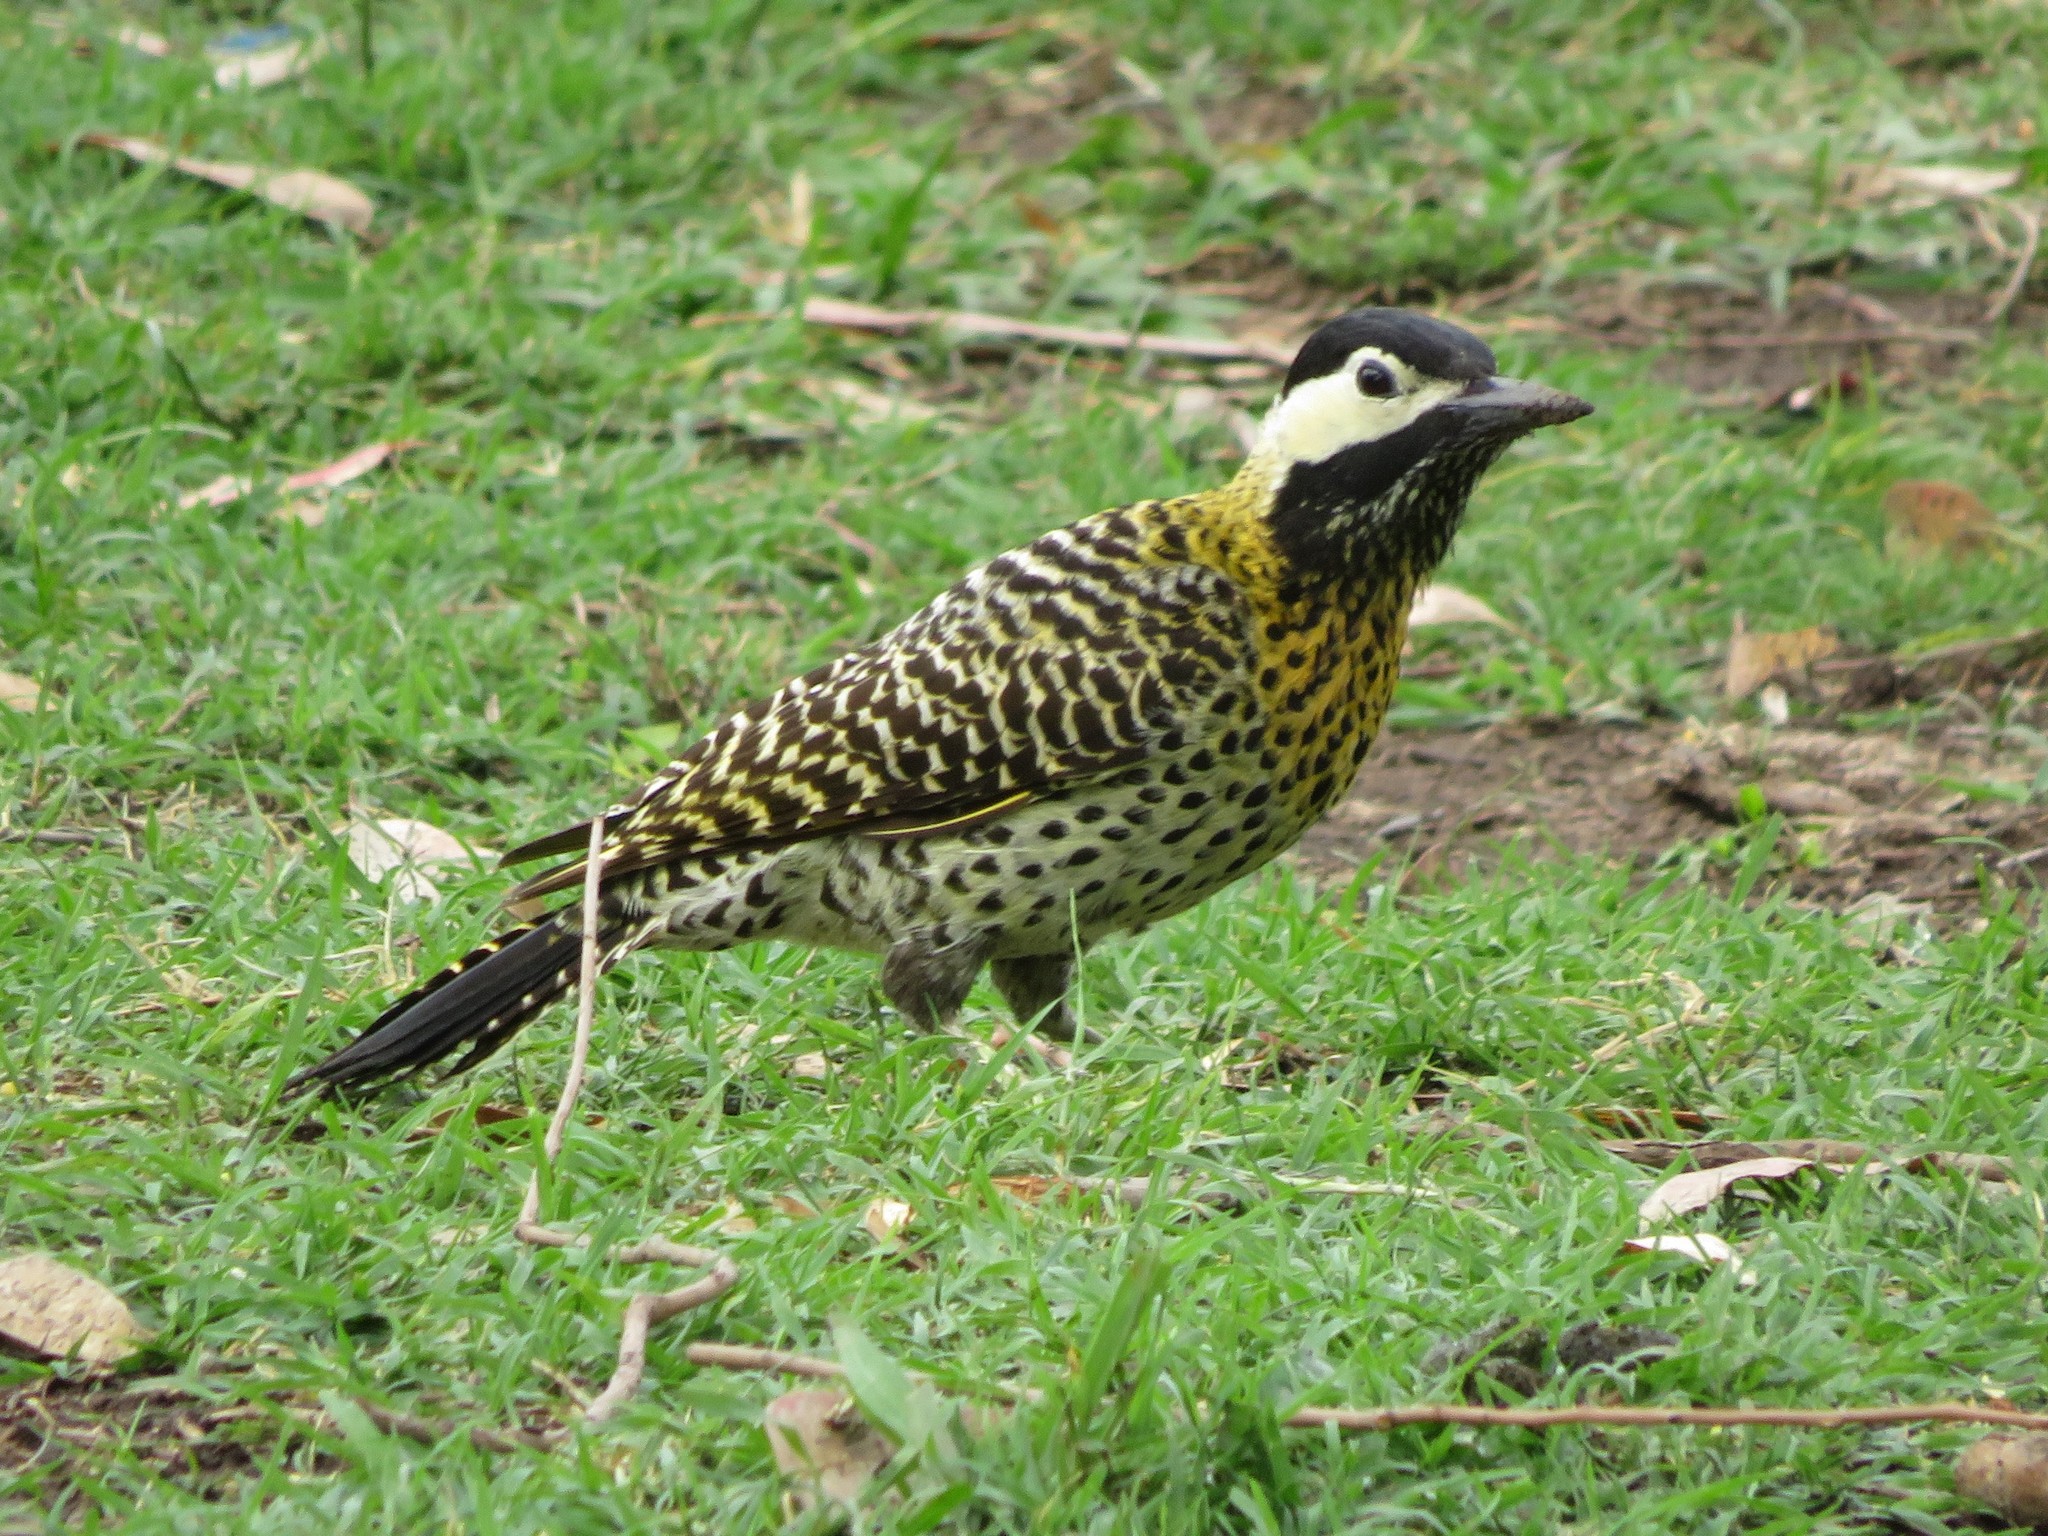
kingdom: Animalia
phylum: Chordata
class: Aves
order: Piciformes
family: Picidae
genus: Colaptes
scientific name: Colaptes melanochloros
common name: Green-barred woodpecker
